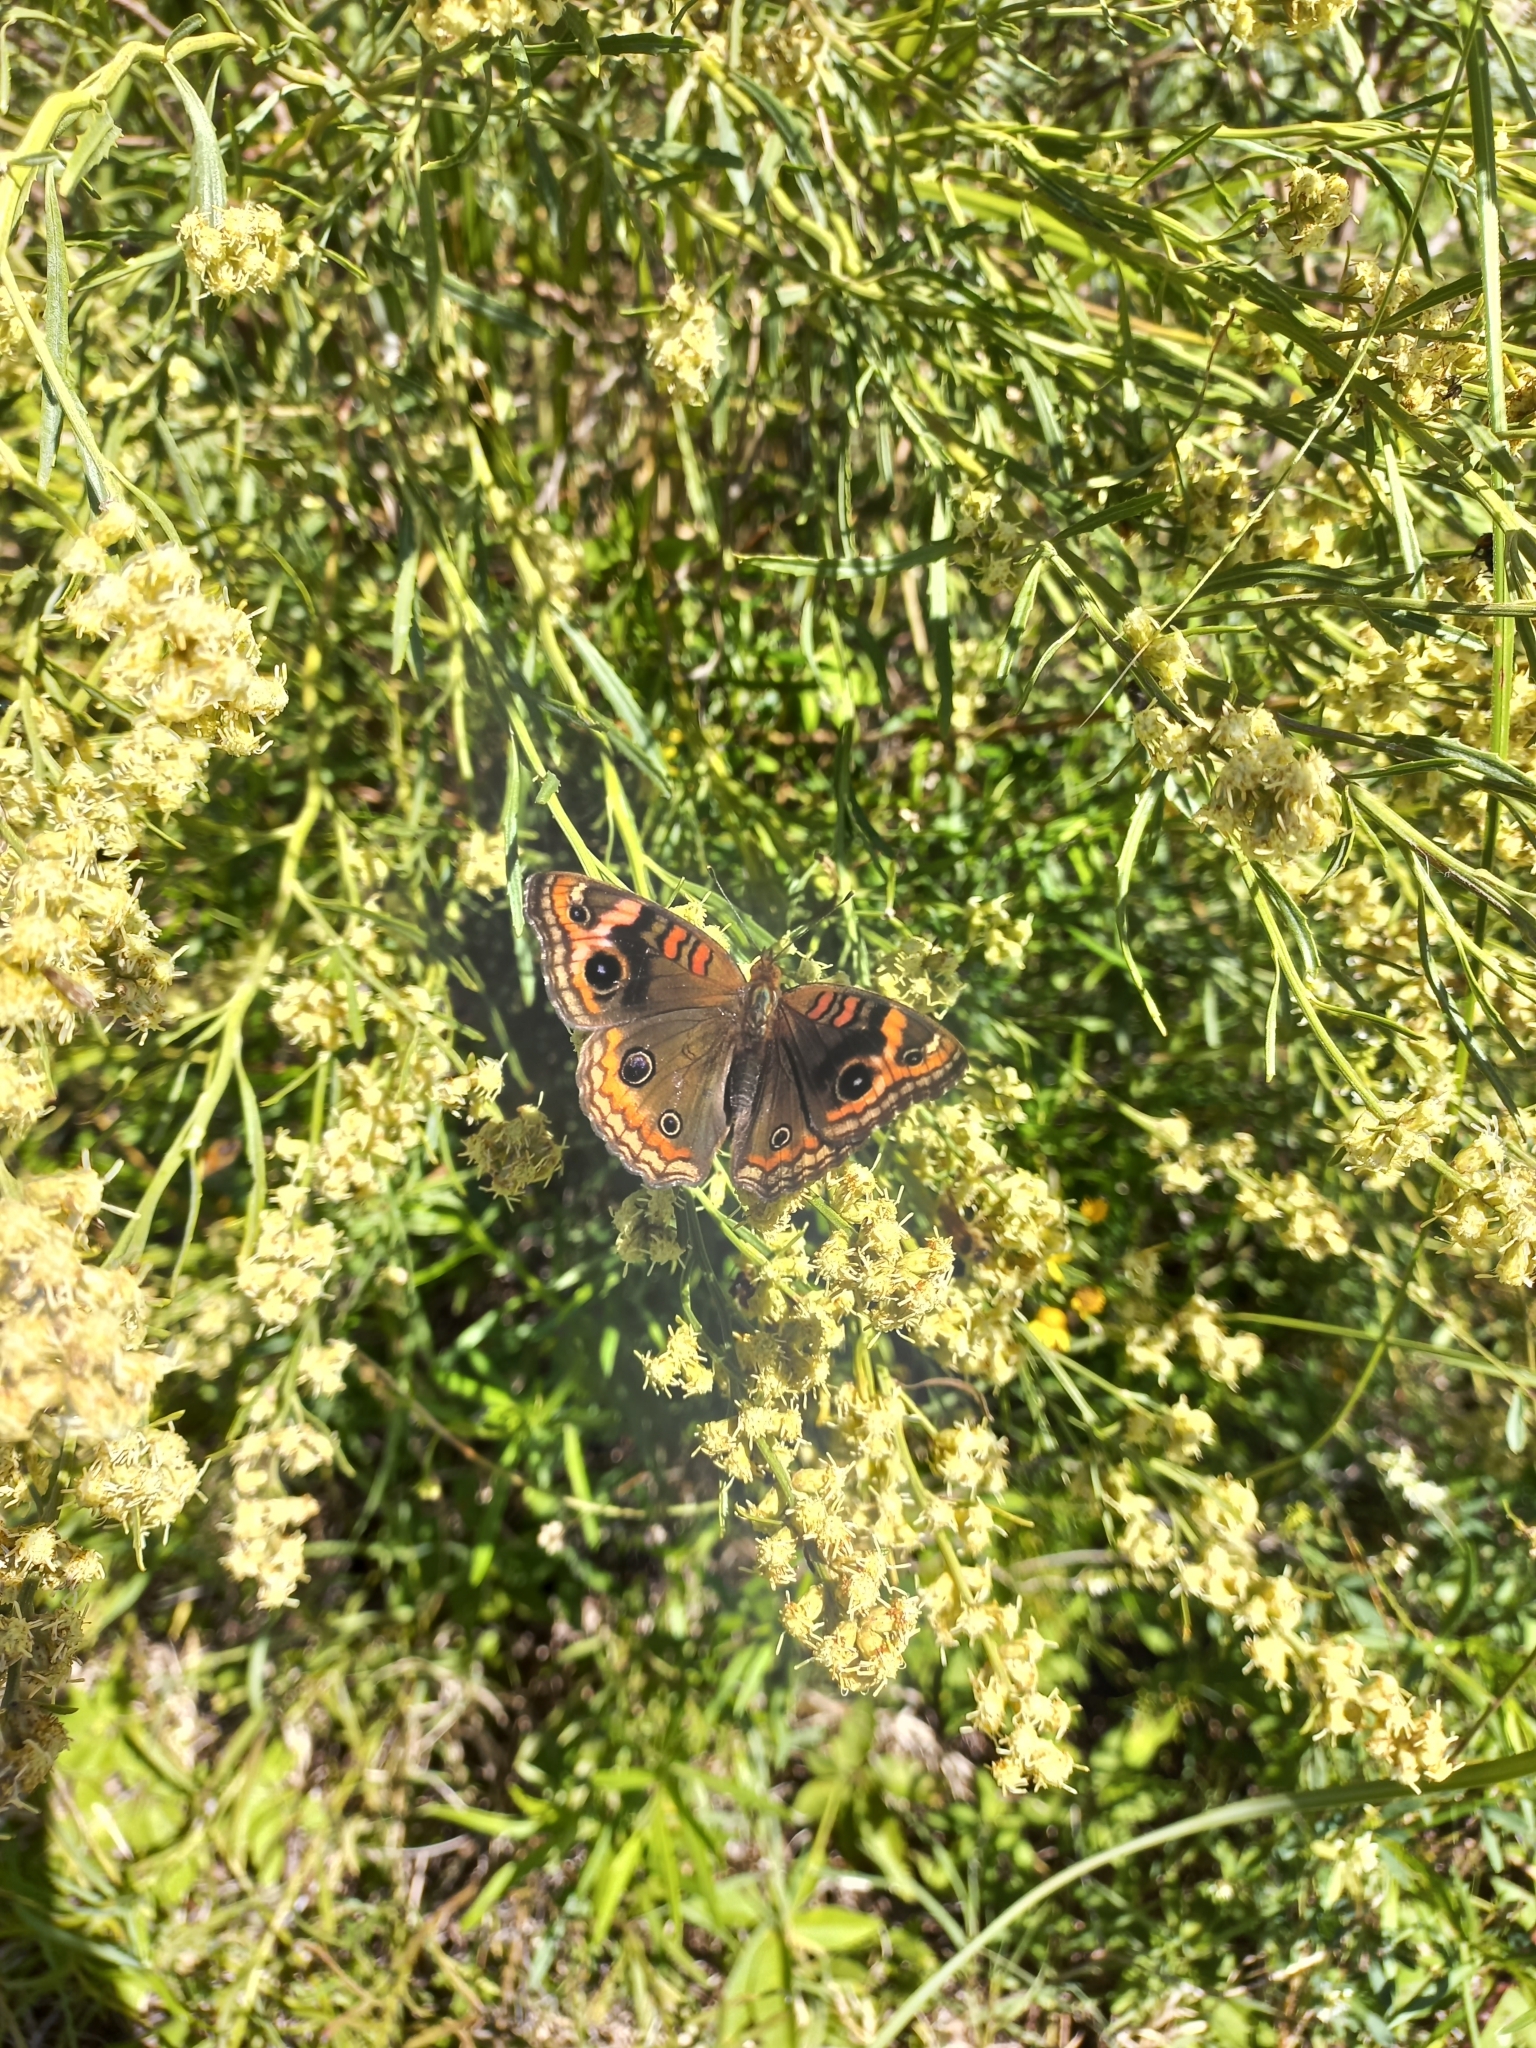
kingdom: Animalia
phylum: Arthropoda
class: Insecta
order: Lepidoptera
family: Nymphalidae
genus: Junonia
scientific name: Junonia lavinia
